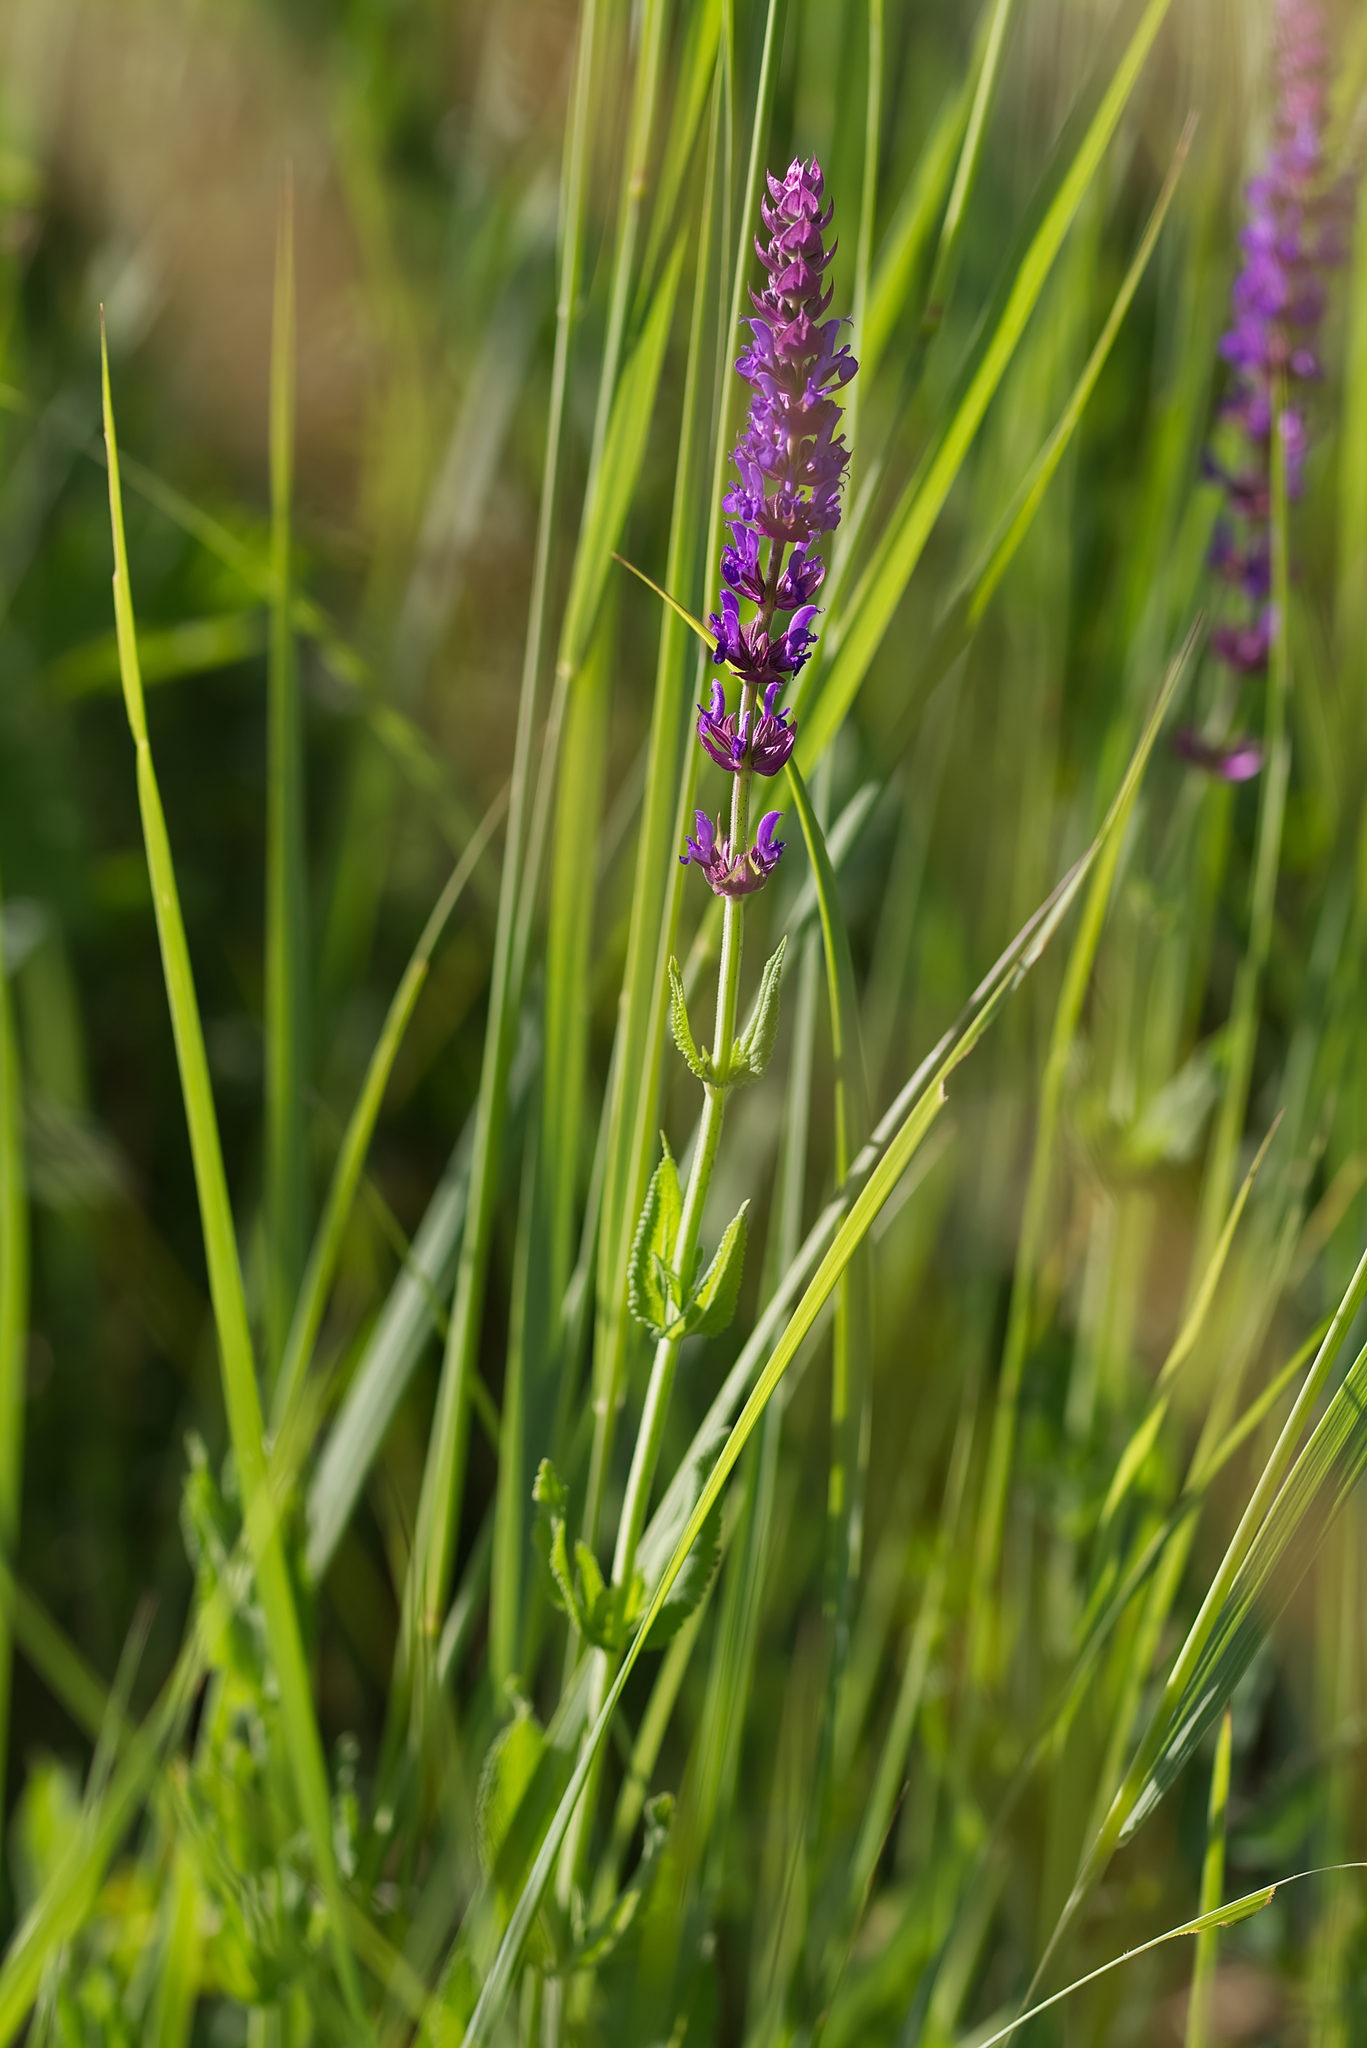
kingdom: Plantae
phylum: Tracheophyta
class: Magnoliopsida
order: Lamiales
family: Lamiaceae
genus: Salvia
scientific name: Salvia nemorosa
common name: Balkan clary
